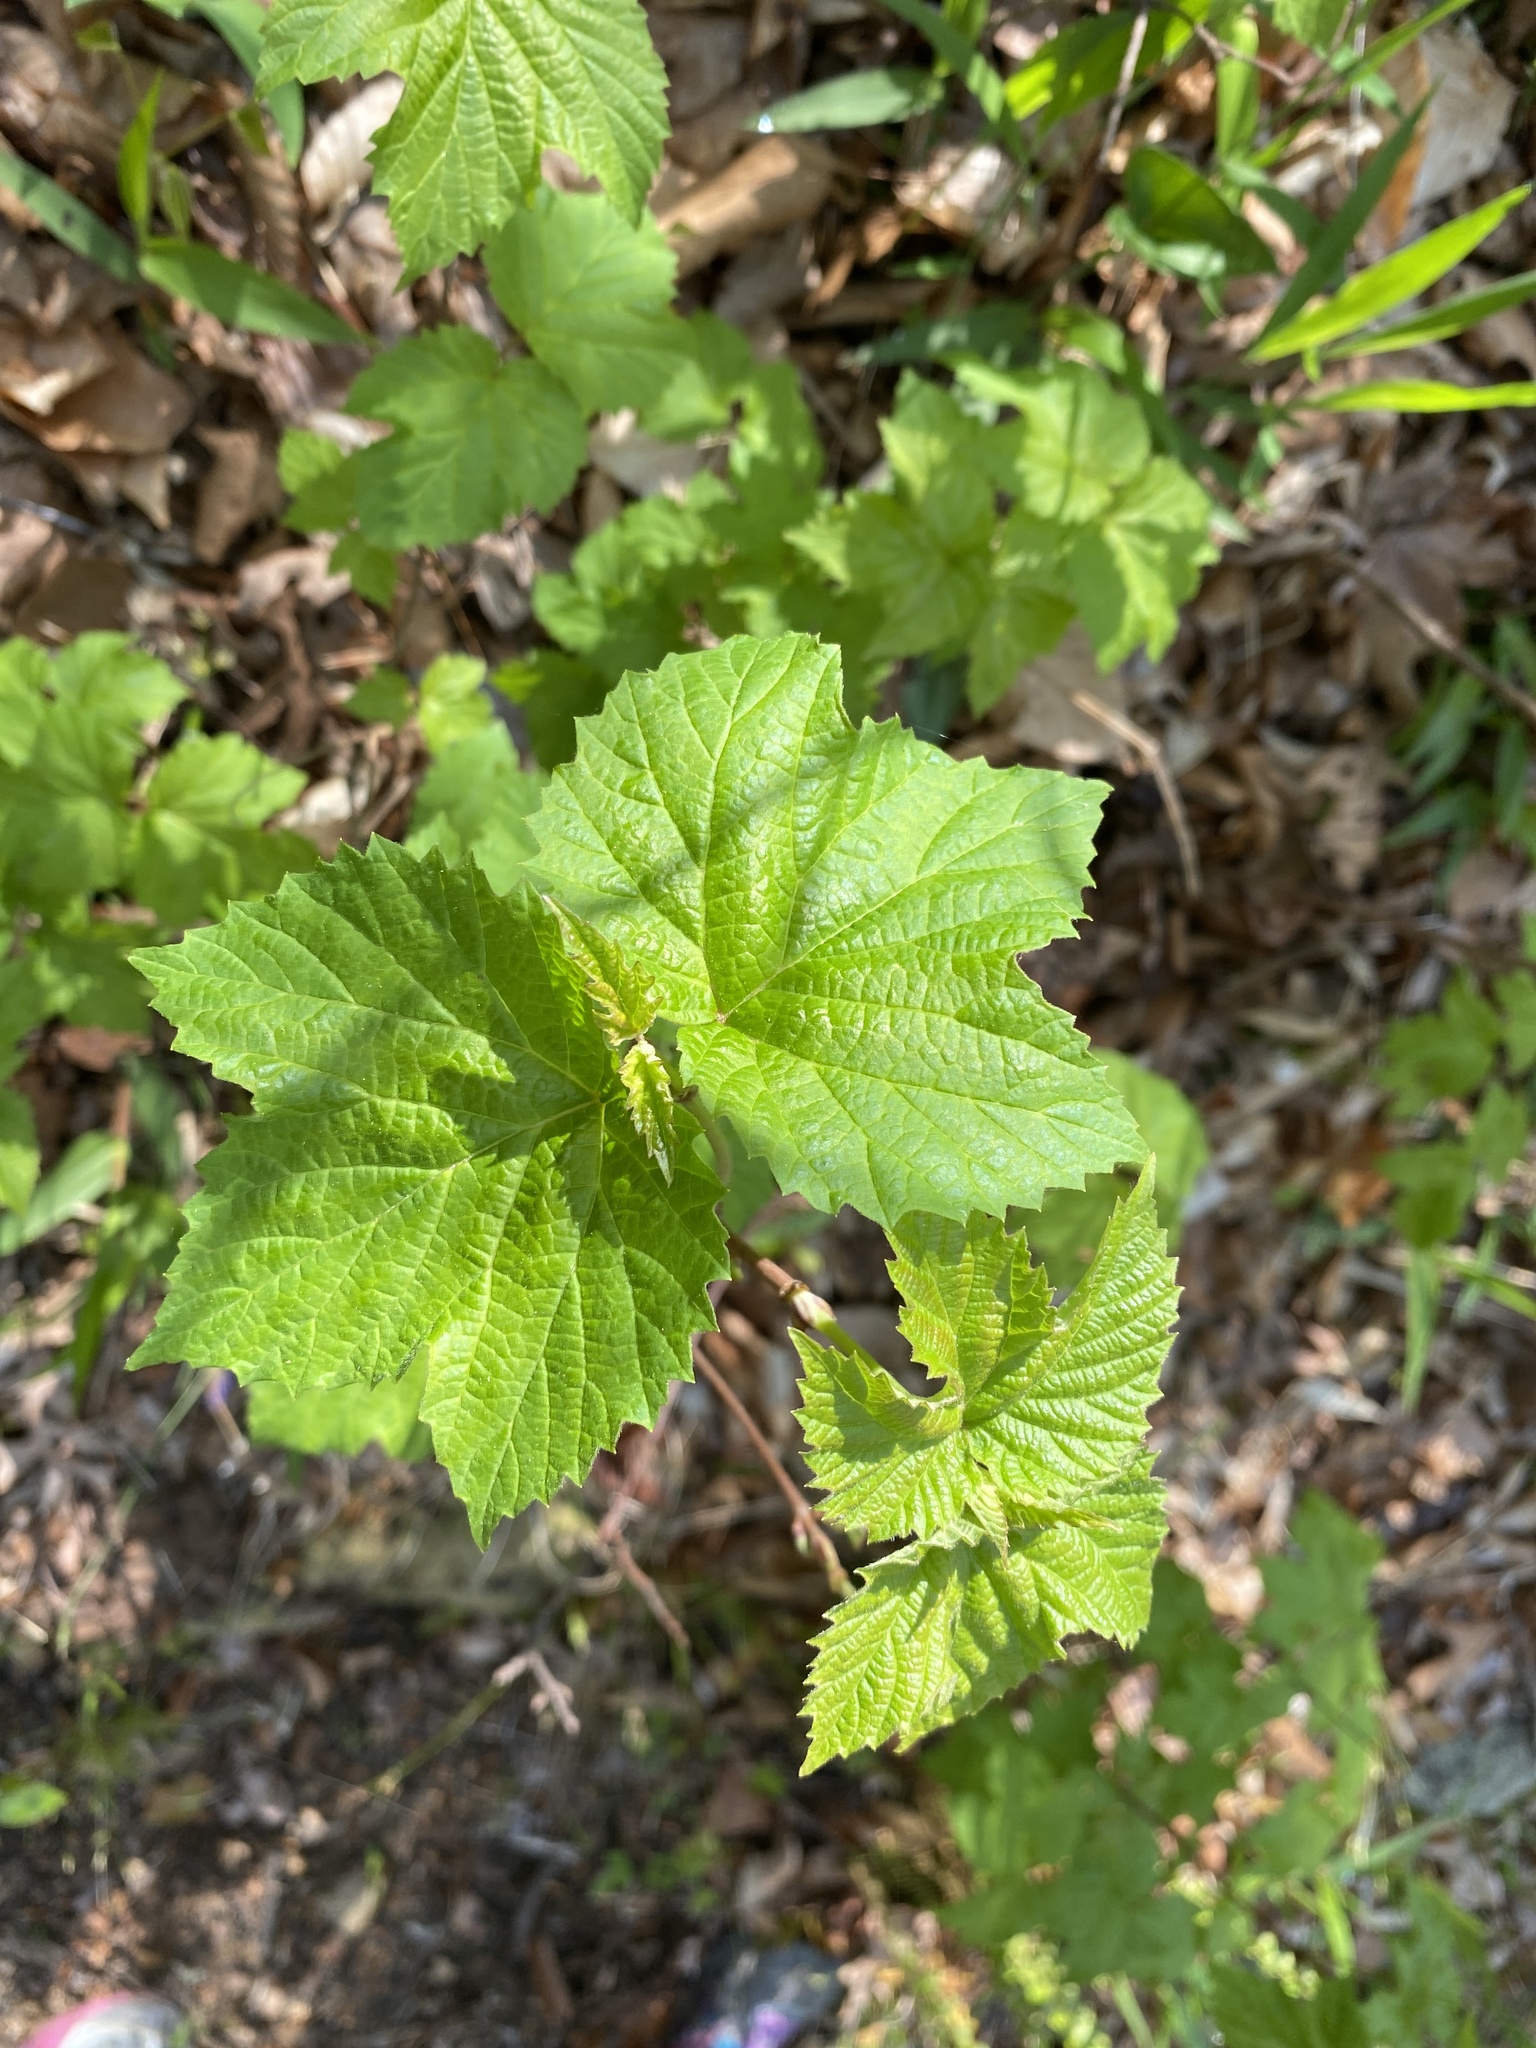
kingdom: Plantae
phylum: Tracheophyta
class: Magnoliopsida
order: Dipsacales
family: Viburnaceae
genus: Viburnum
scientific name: Viburnum acerifolium
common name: Dockmackie
